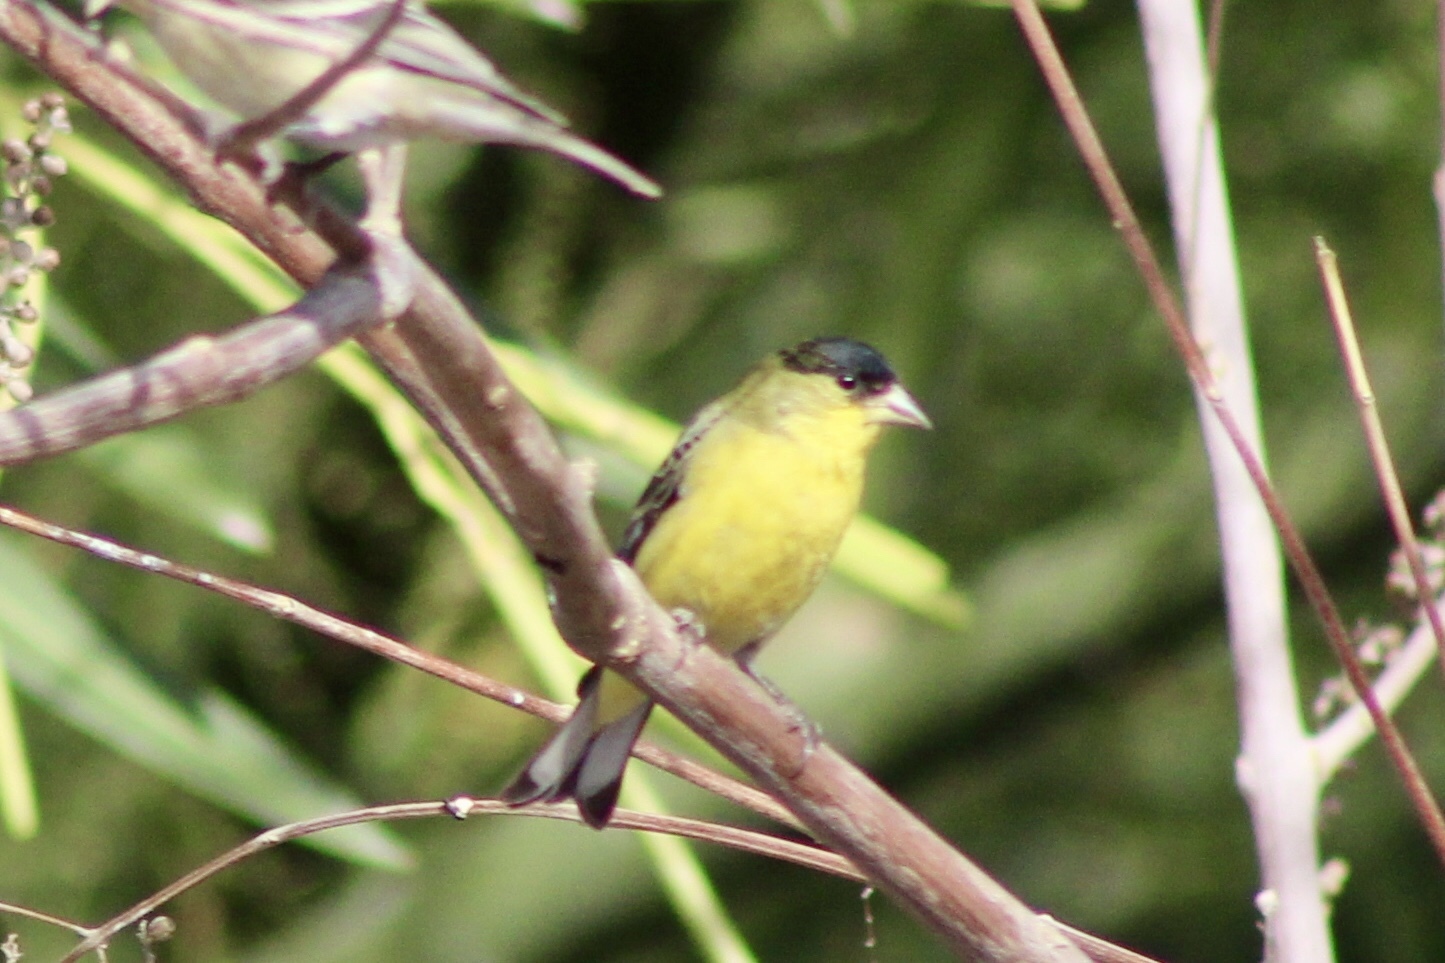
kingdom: Animalia
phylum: Chordata
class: Aves
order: Passeriformes
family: Fringillidae
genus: Spinus
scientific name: Spinus psaltria
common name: Lesser goldfinch
